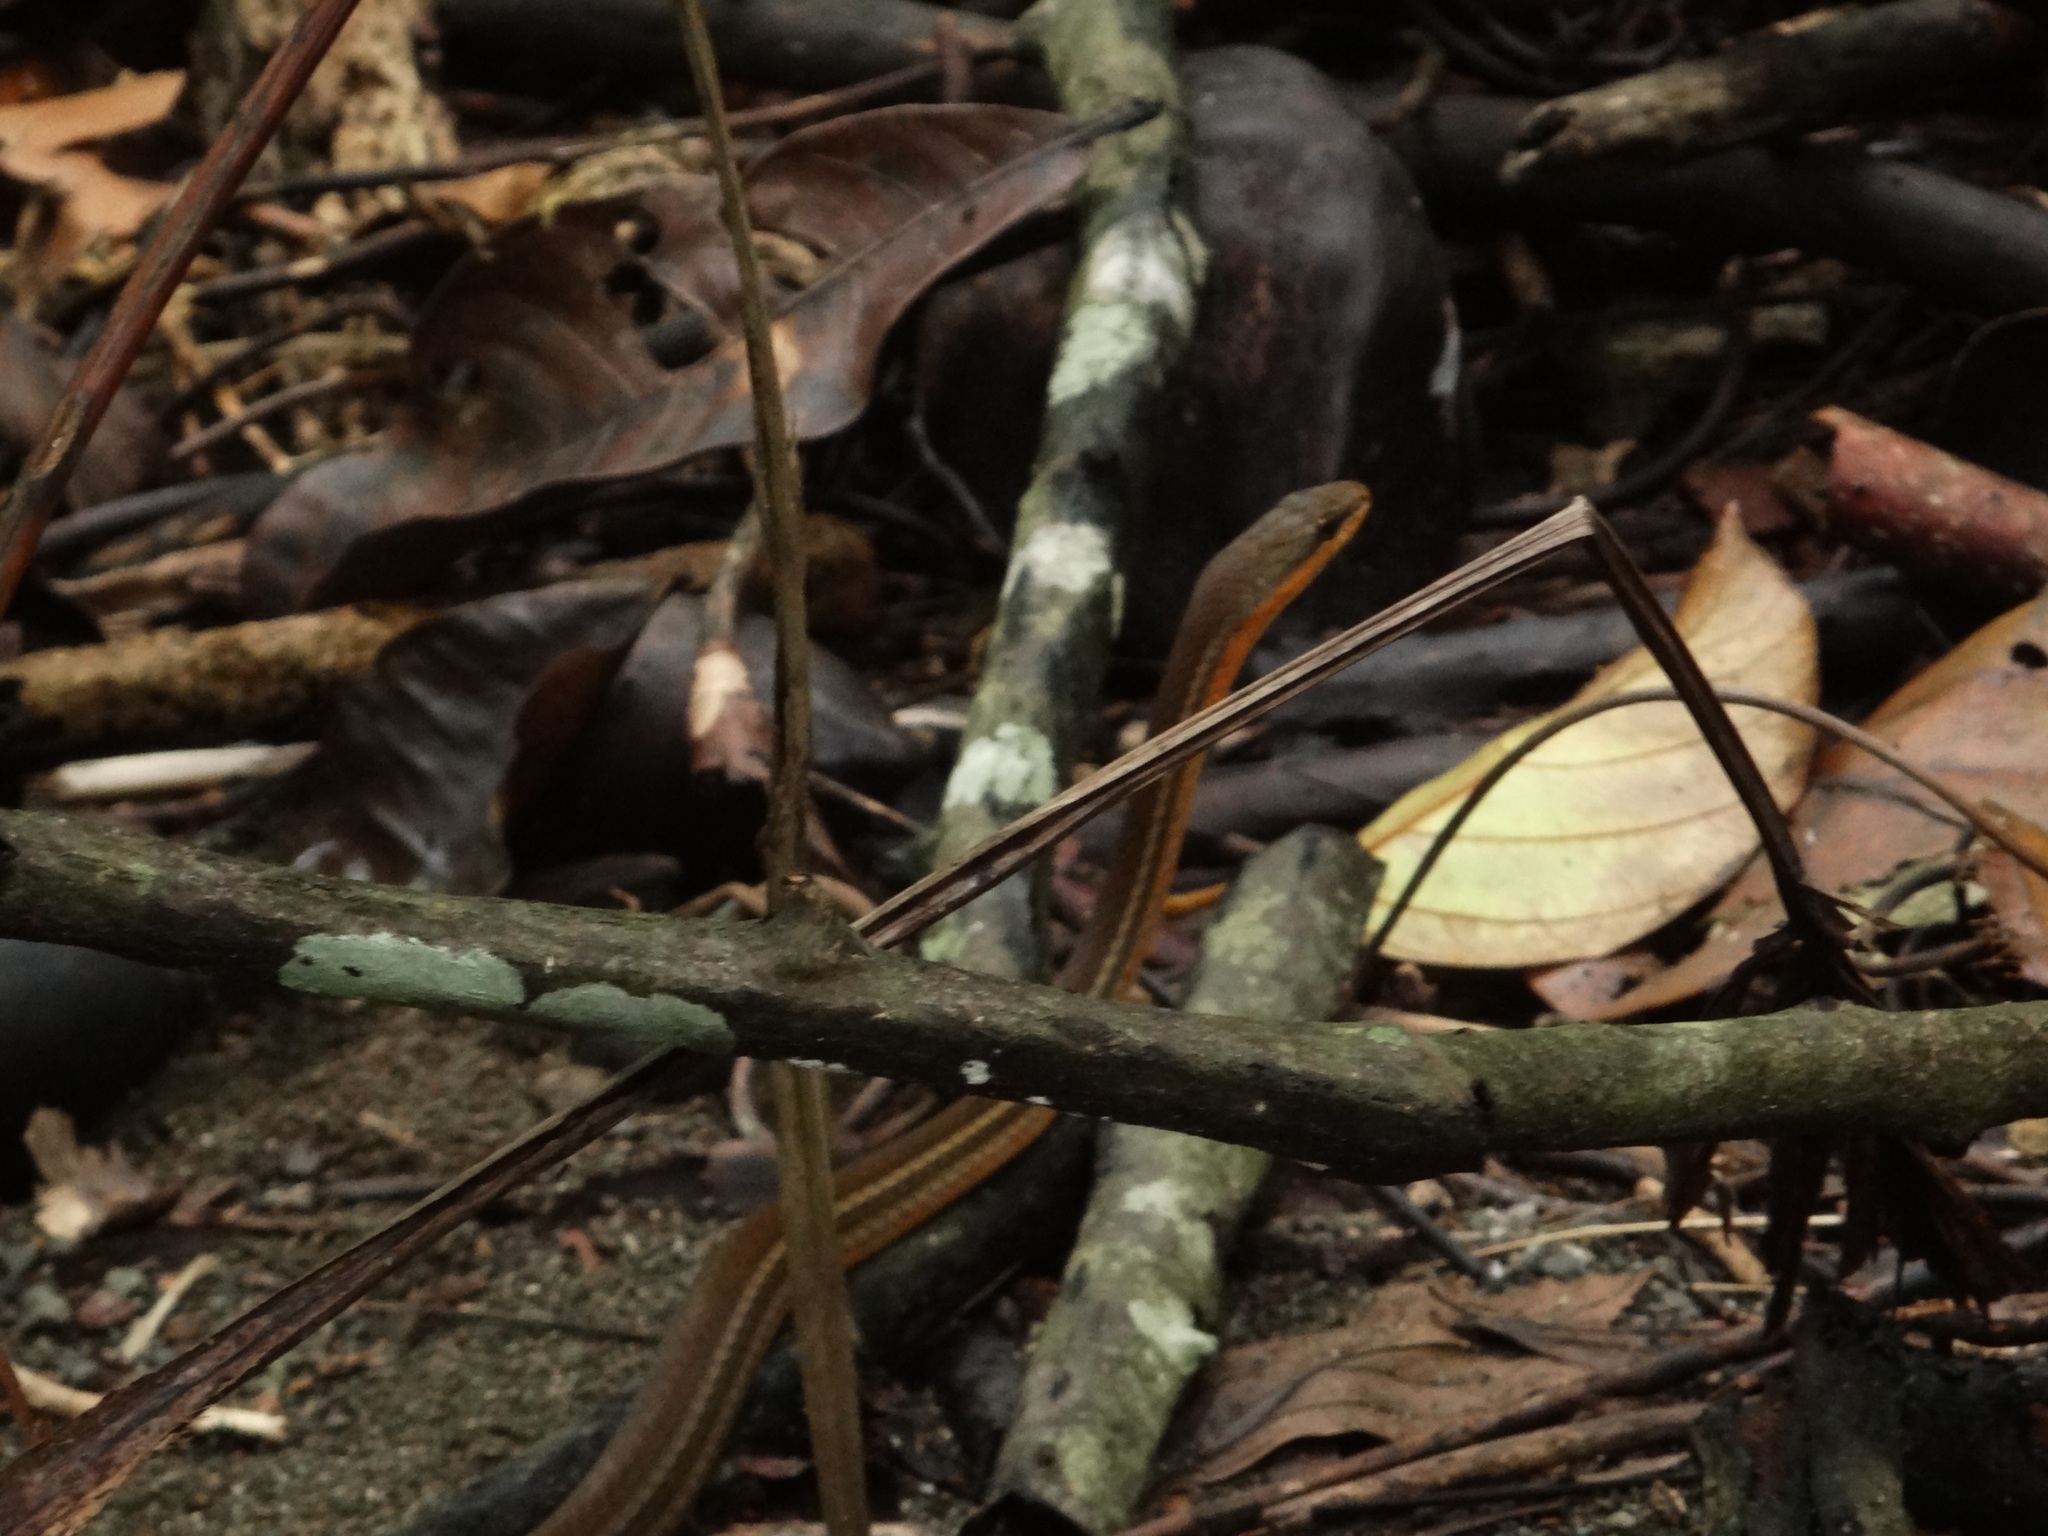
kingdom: Animalia
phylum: Chordata
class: Squamata
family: Colubridae
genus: Mastigodryas
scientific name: Mastigodryas melanolomus
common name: Salmon-bellied racer
